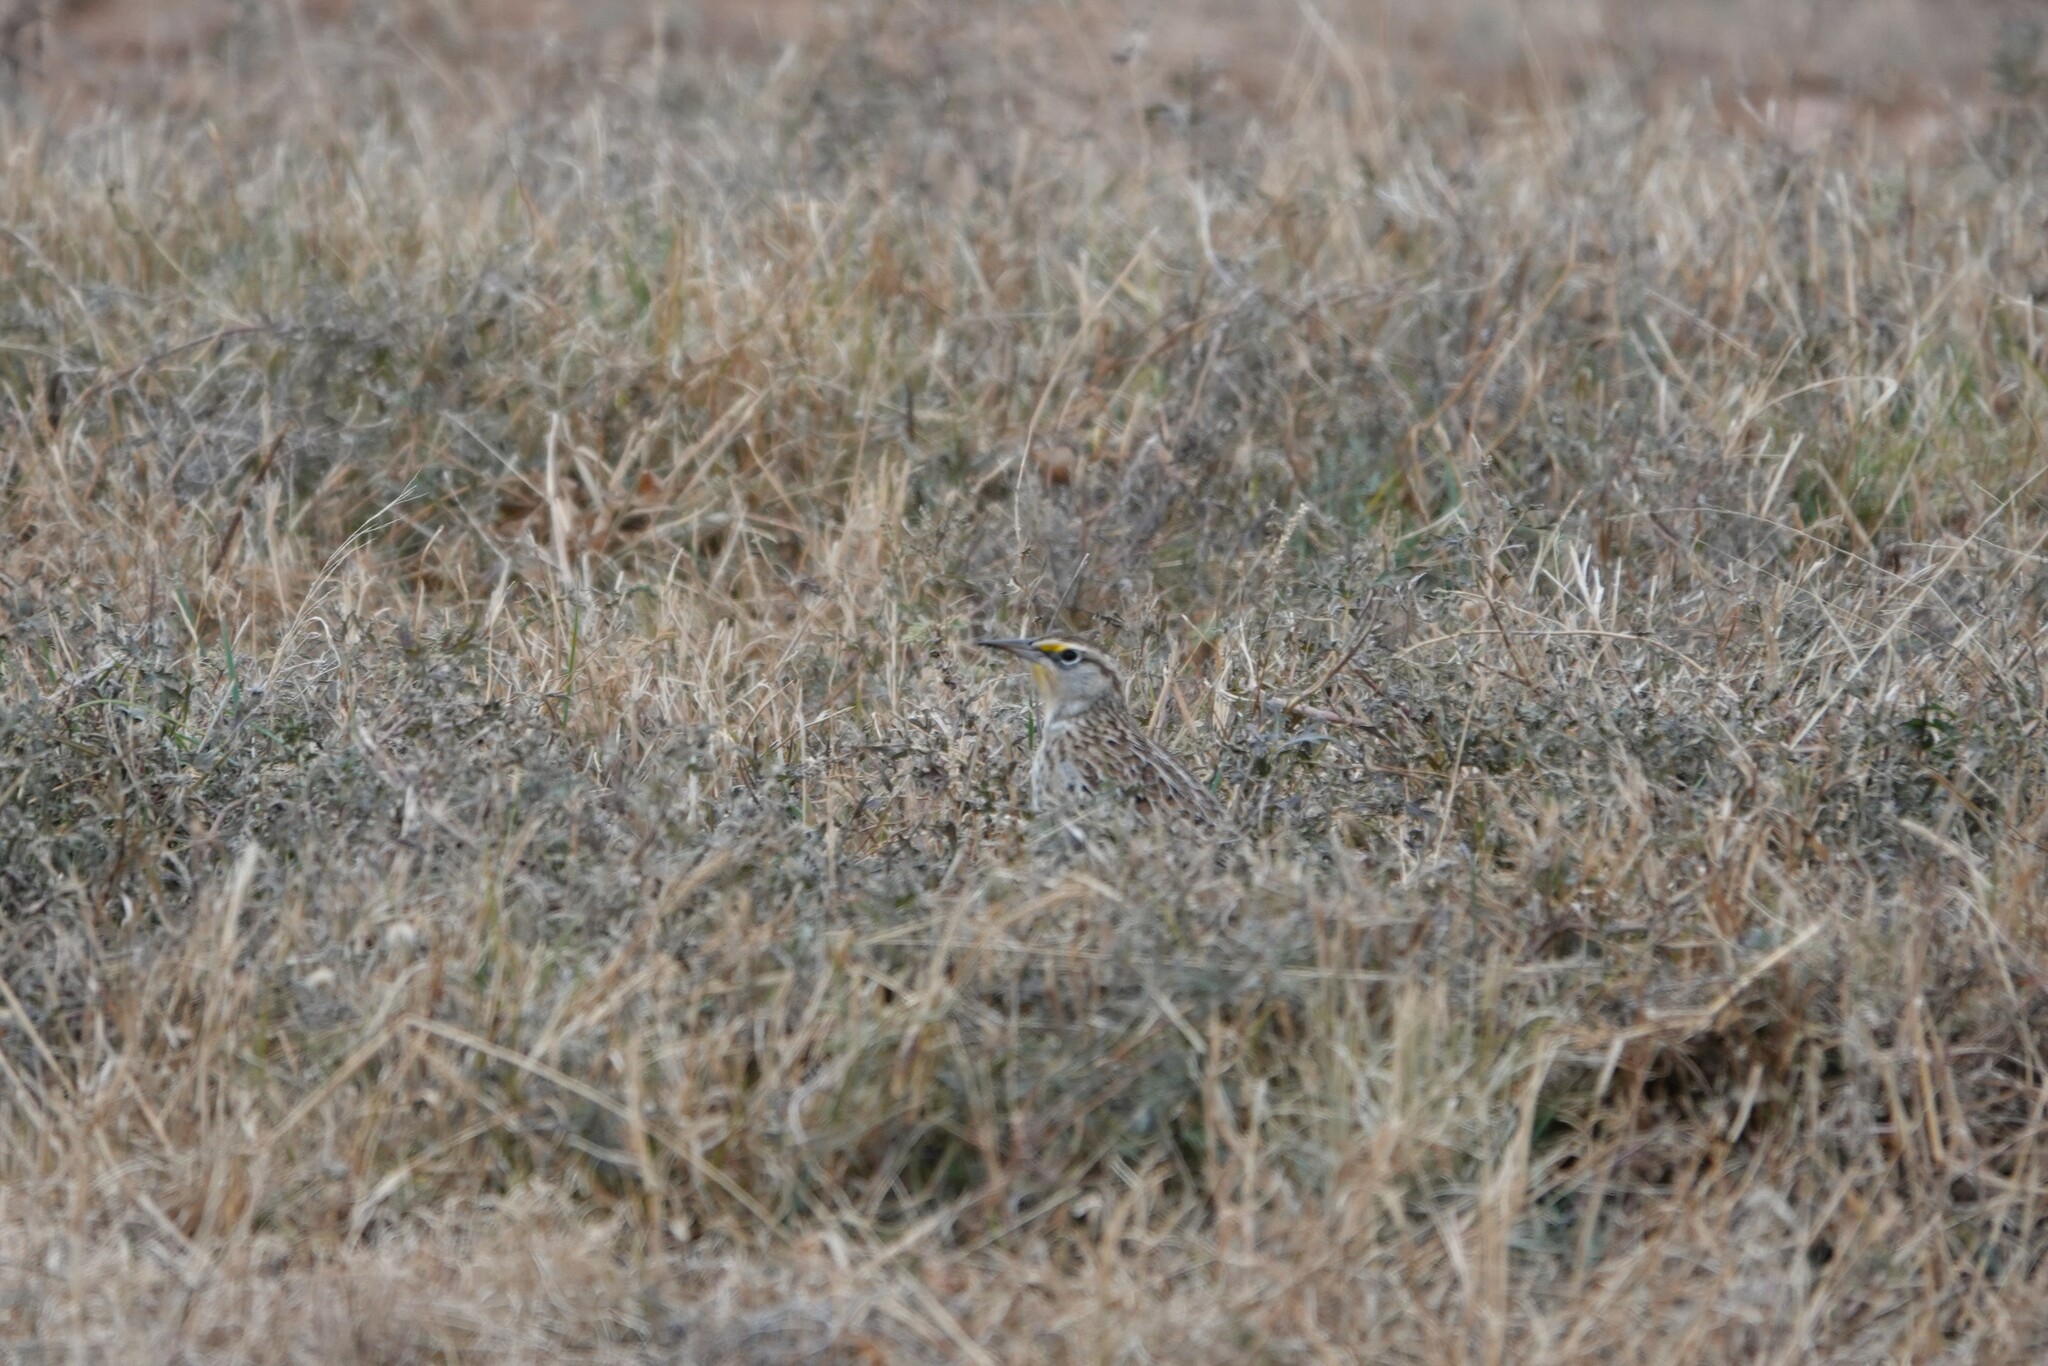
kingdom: Animalia
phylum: Chordata
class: Aves
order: Passeriformes
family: Icteridae
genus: Sturnella
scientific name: Sturnella neglecta
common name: Western meadowlark
